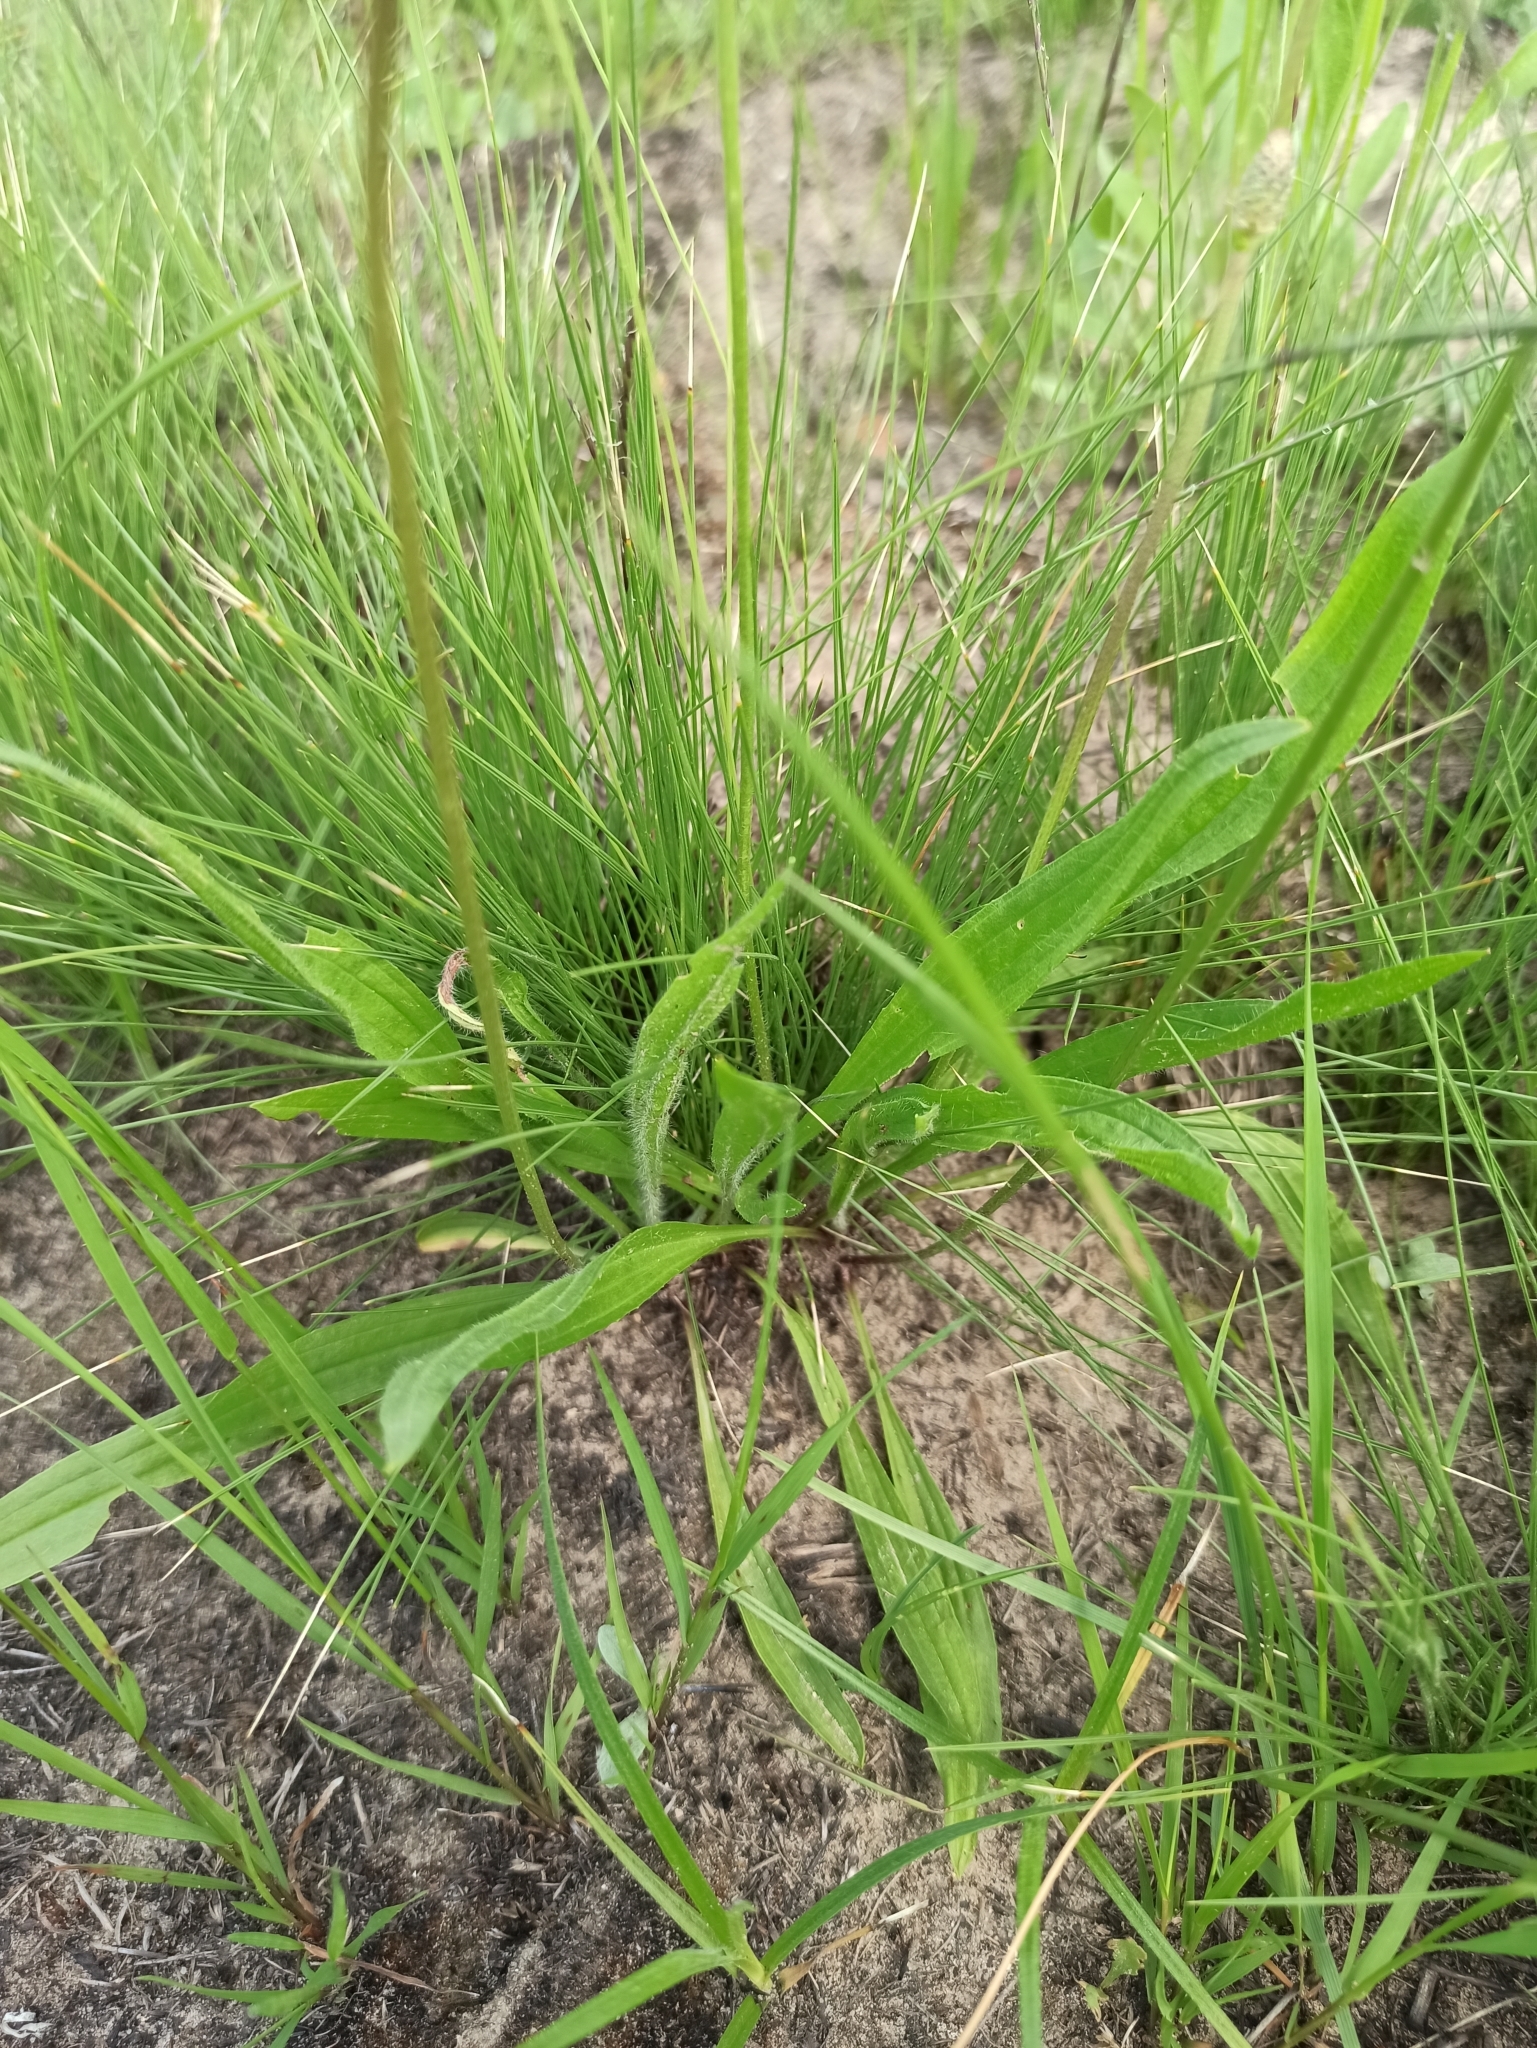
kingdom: Plantae
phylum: Tracheophyta
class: Magnoliopsida
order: Lamiales
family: Plantaginaceae
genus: Plantago
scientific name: Plantago lanceolata
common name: Ribwort plantain
